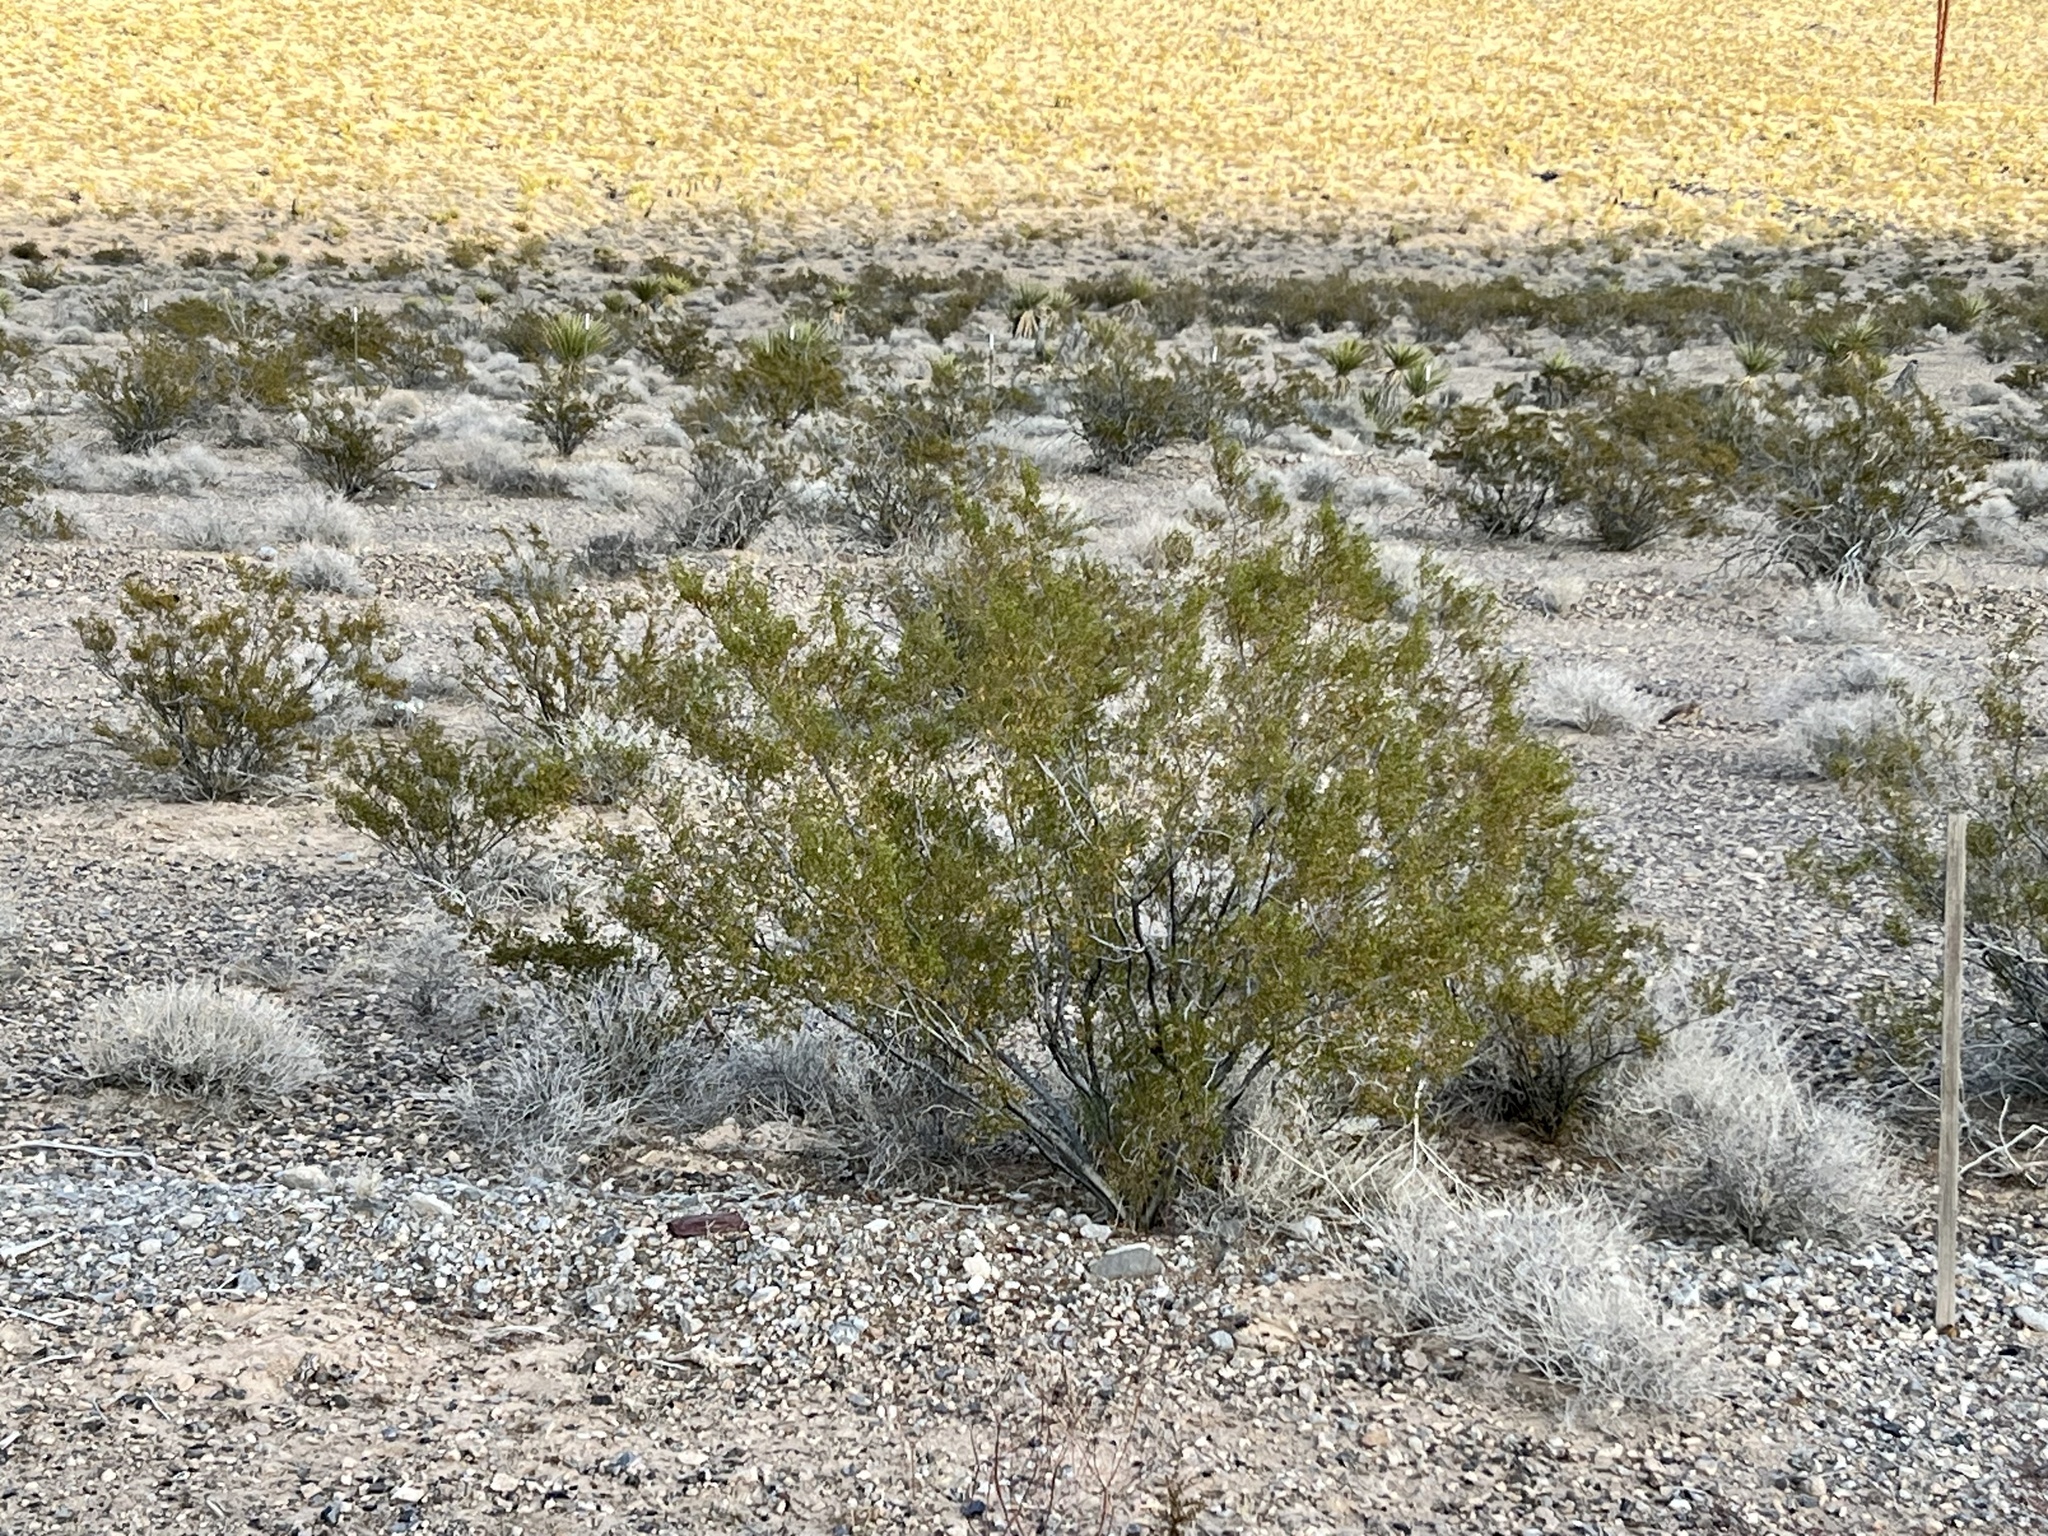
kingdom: Plantae
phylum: Tracheophyta
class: Magnoliopsida
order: Zygophyllales
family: Zygophyllaceae
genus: Larrea
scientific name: Larrea tridentata
